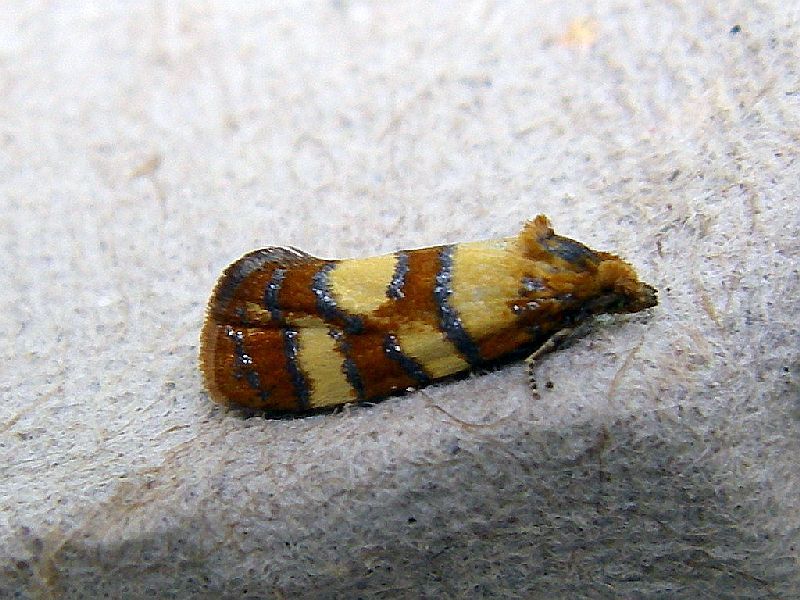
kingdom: Animalia
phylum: Arthropoda
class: Insecta
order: Lepidoptera
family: Tortricidae
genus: Aethes
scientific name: Aethes tesserana
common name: Downland conch
